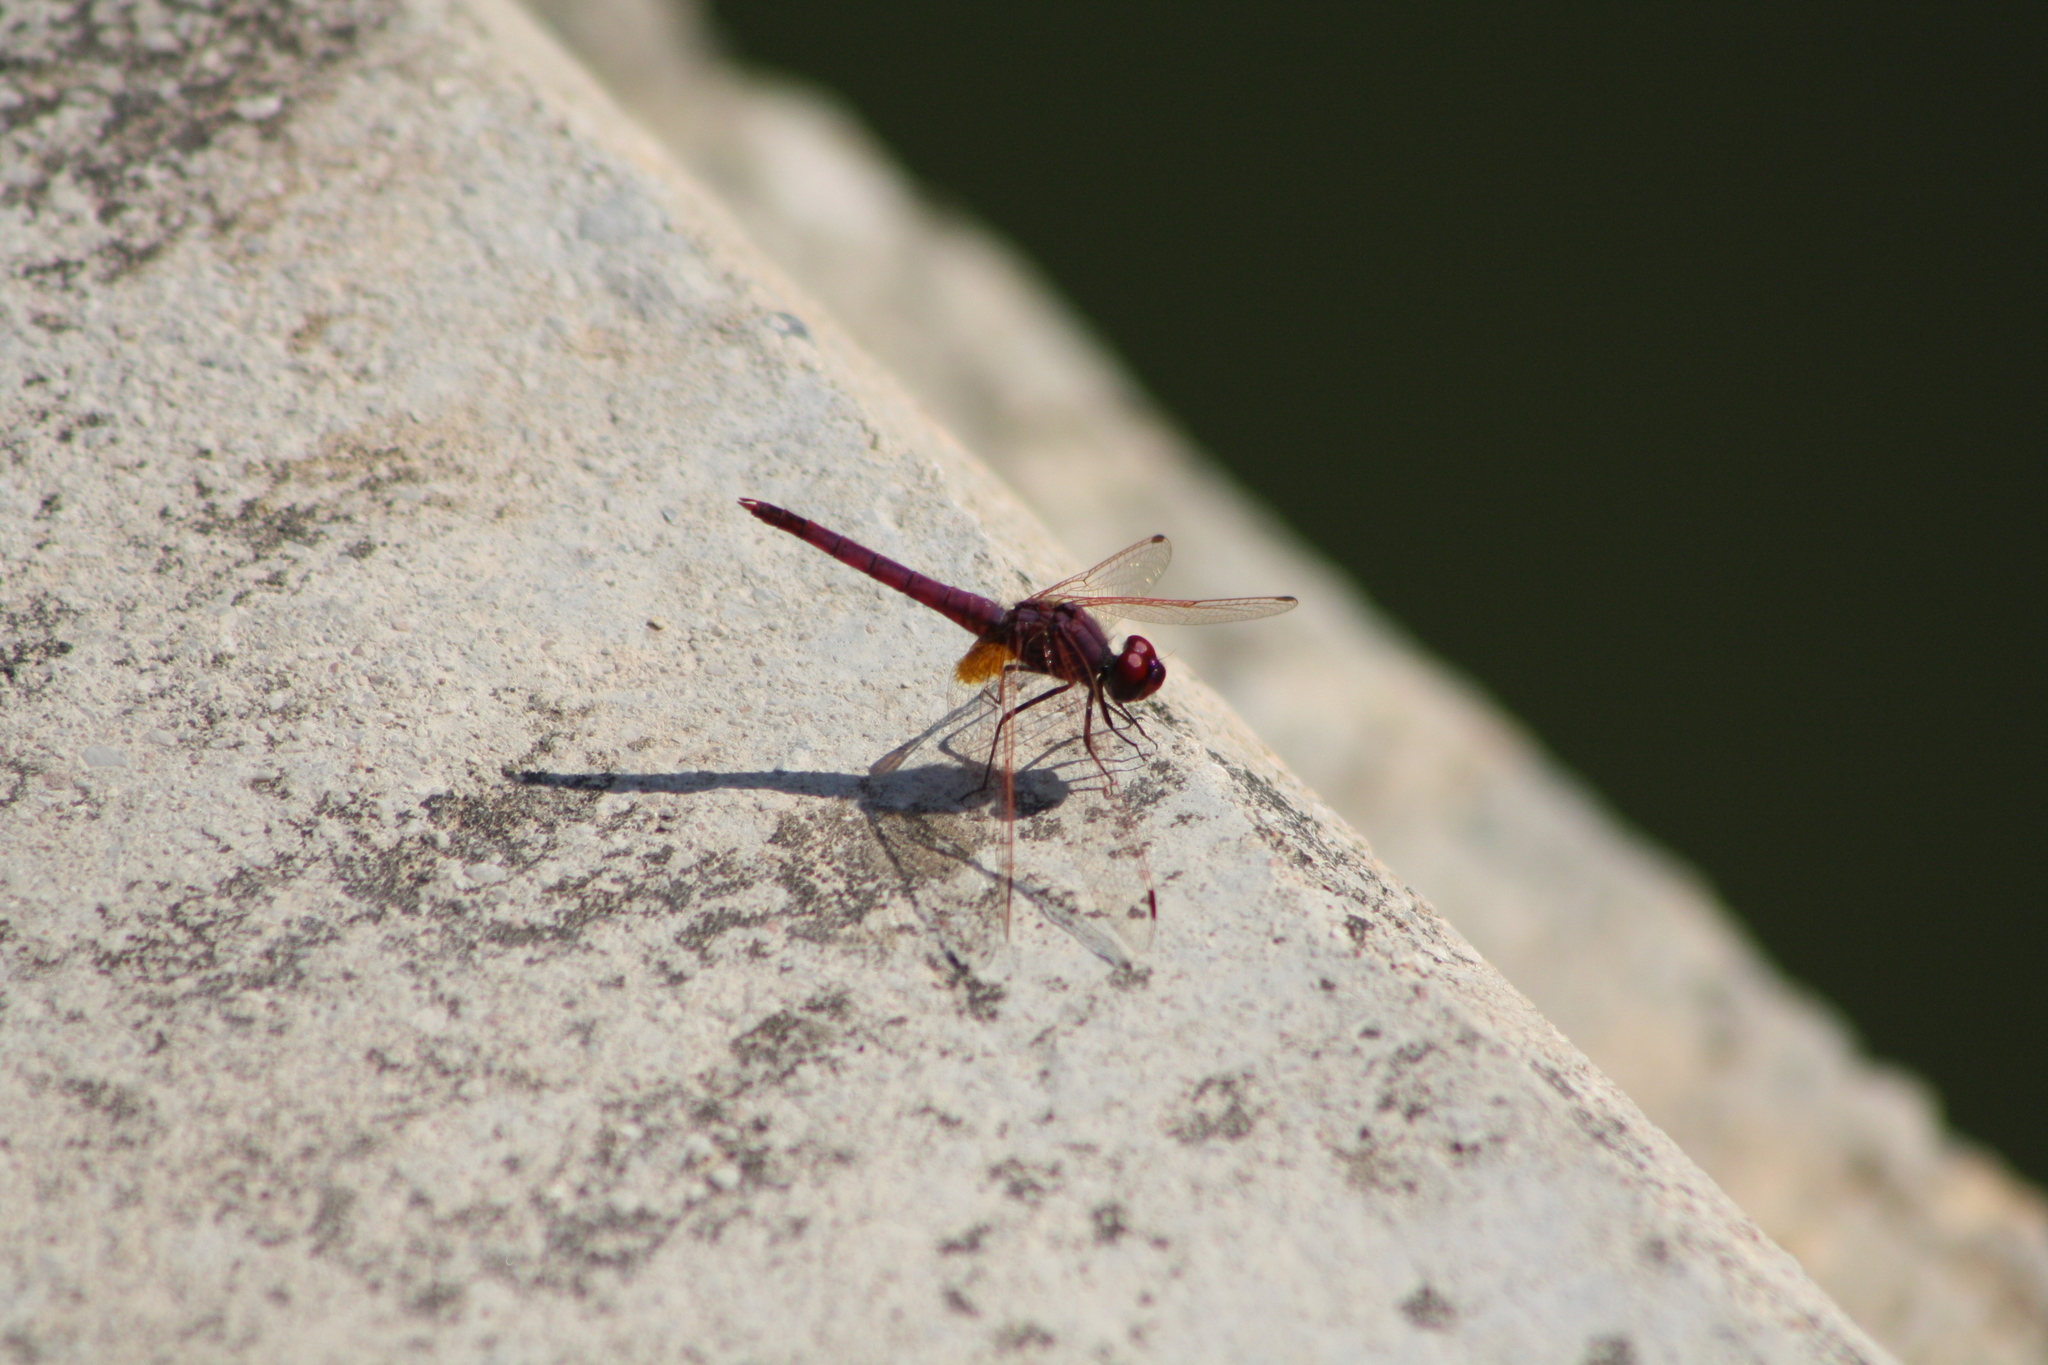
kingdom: Animalia
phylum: Arthropoda
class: Insecta
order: Odonata
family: Libellulidae
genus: Trithemis
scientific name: Trithemis annulata
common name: Violet dropwing
